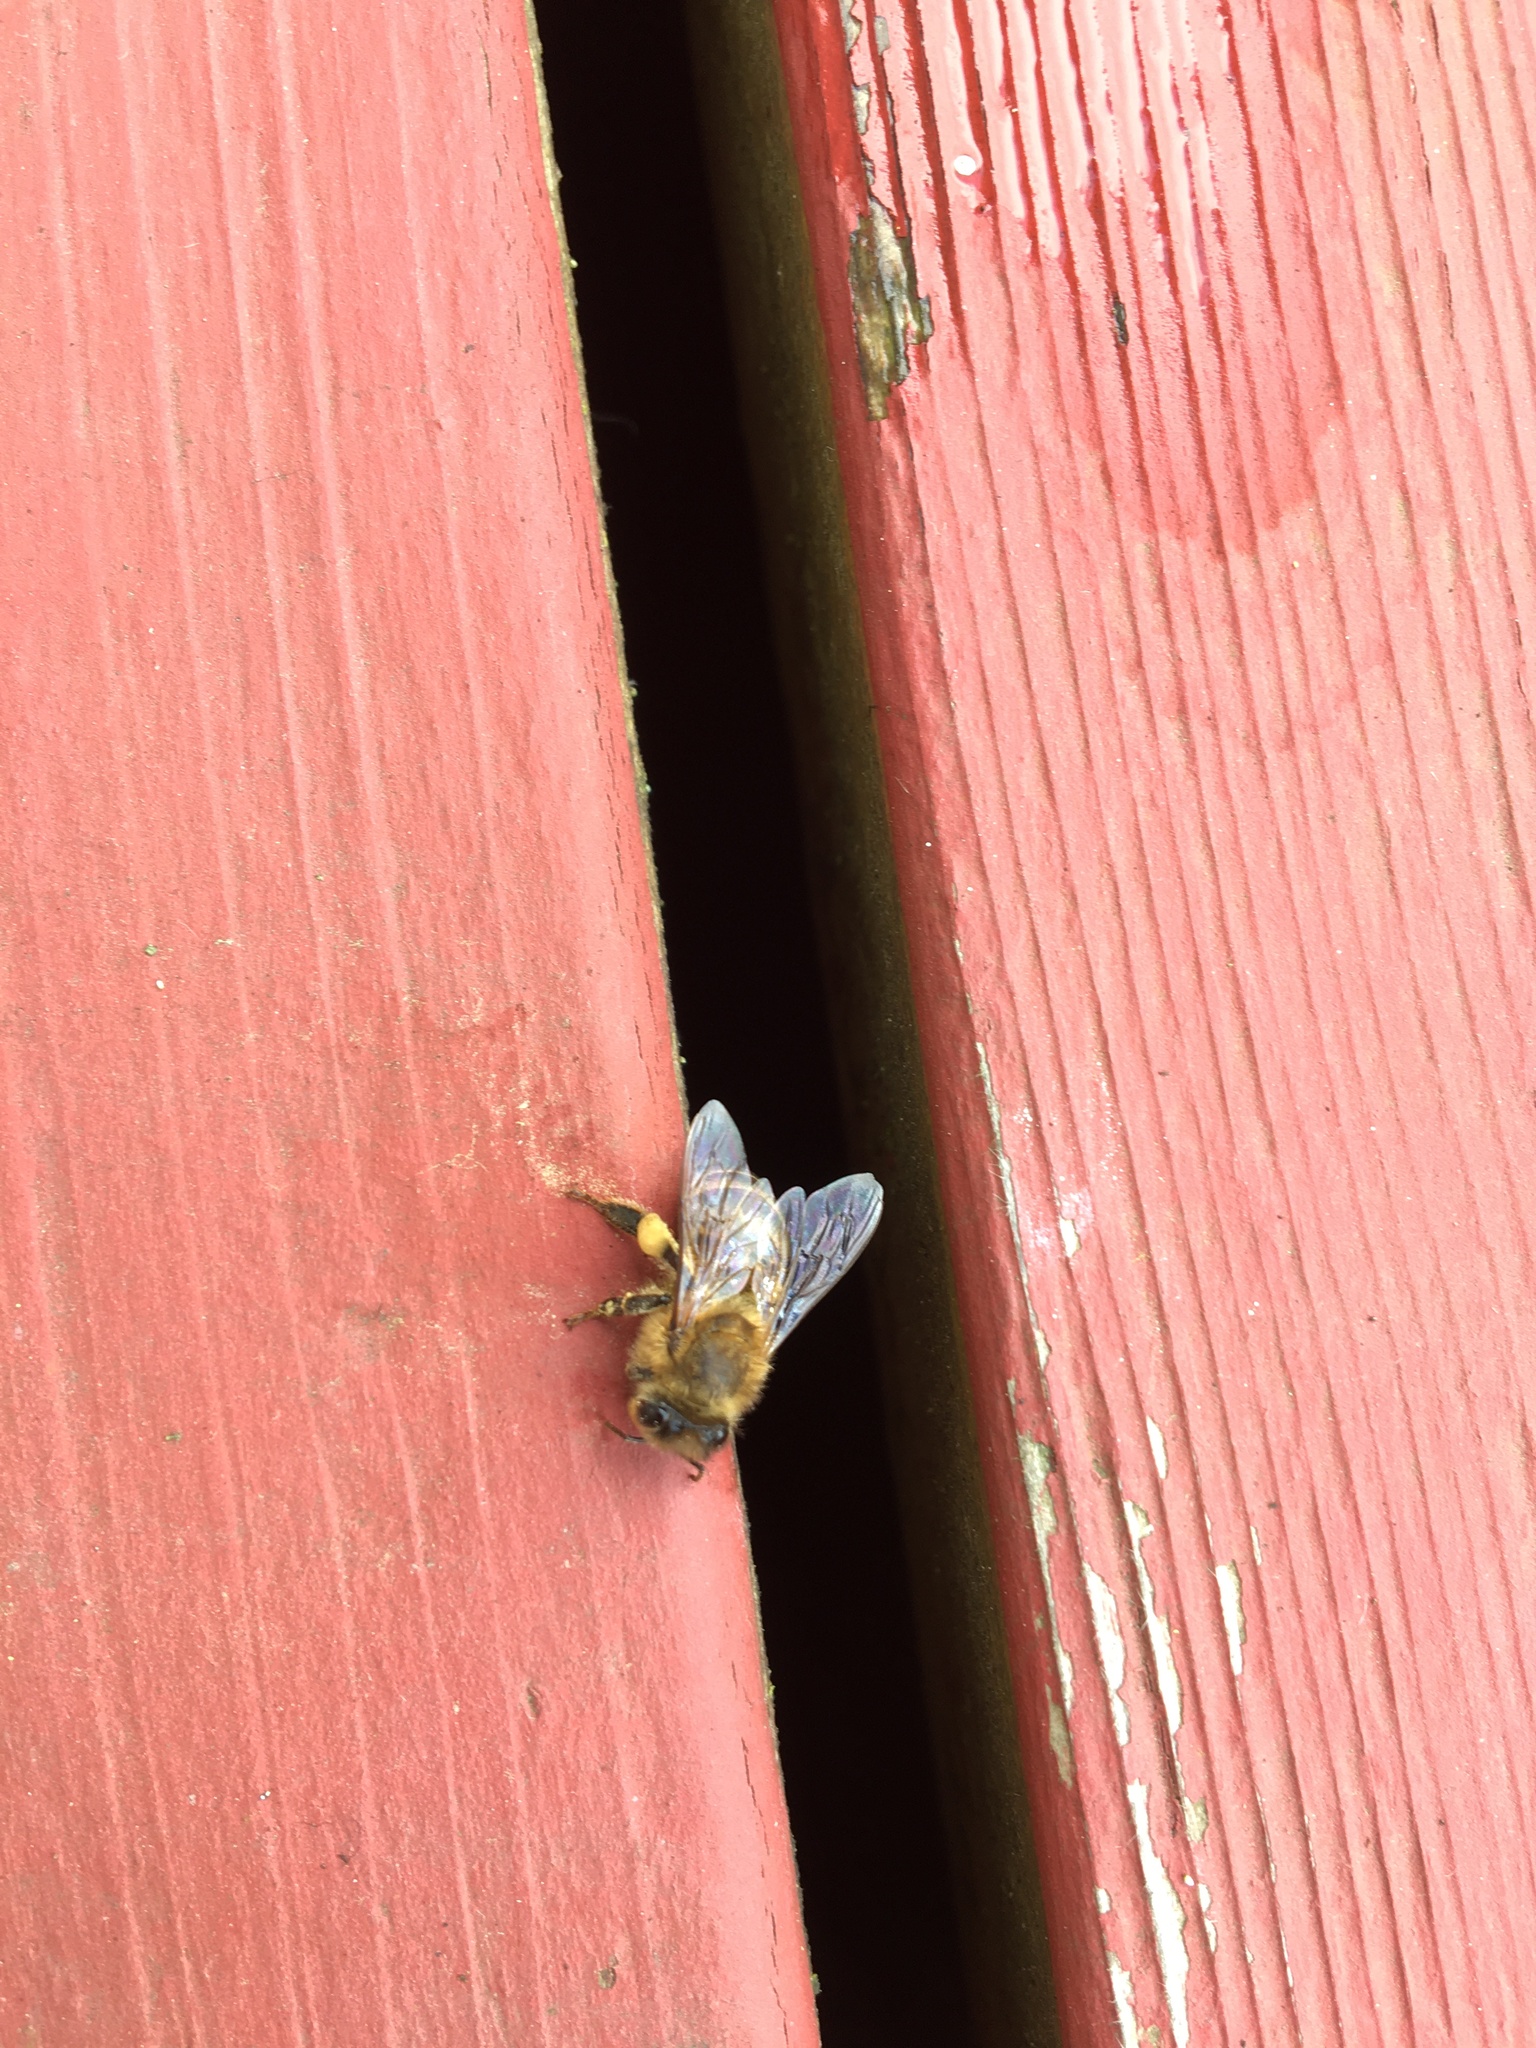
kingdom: Animalia
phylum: Arthropoda
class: Insecta
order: Hymenoptera
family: Apidae
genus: Apis
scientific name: Apis mellifera
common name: Honey bee
